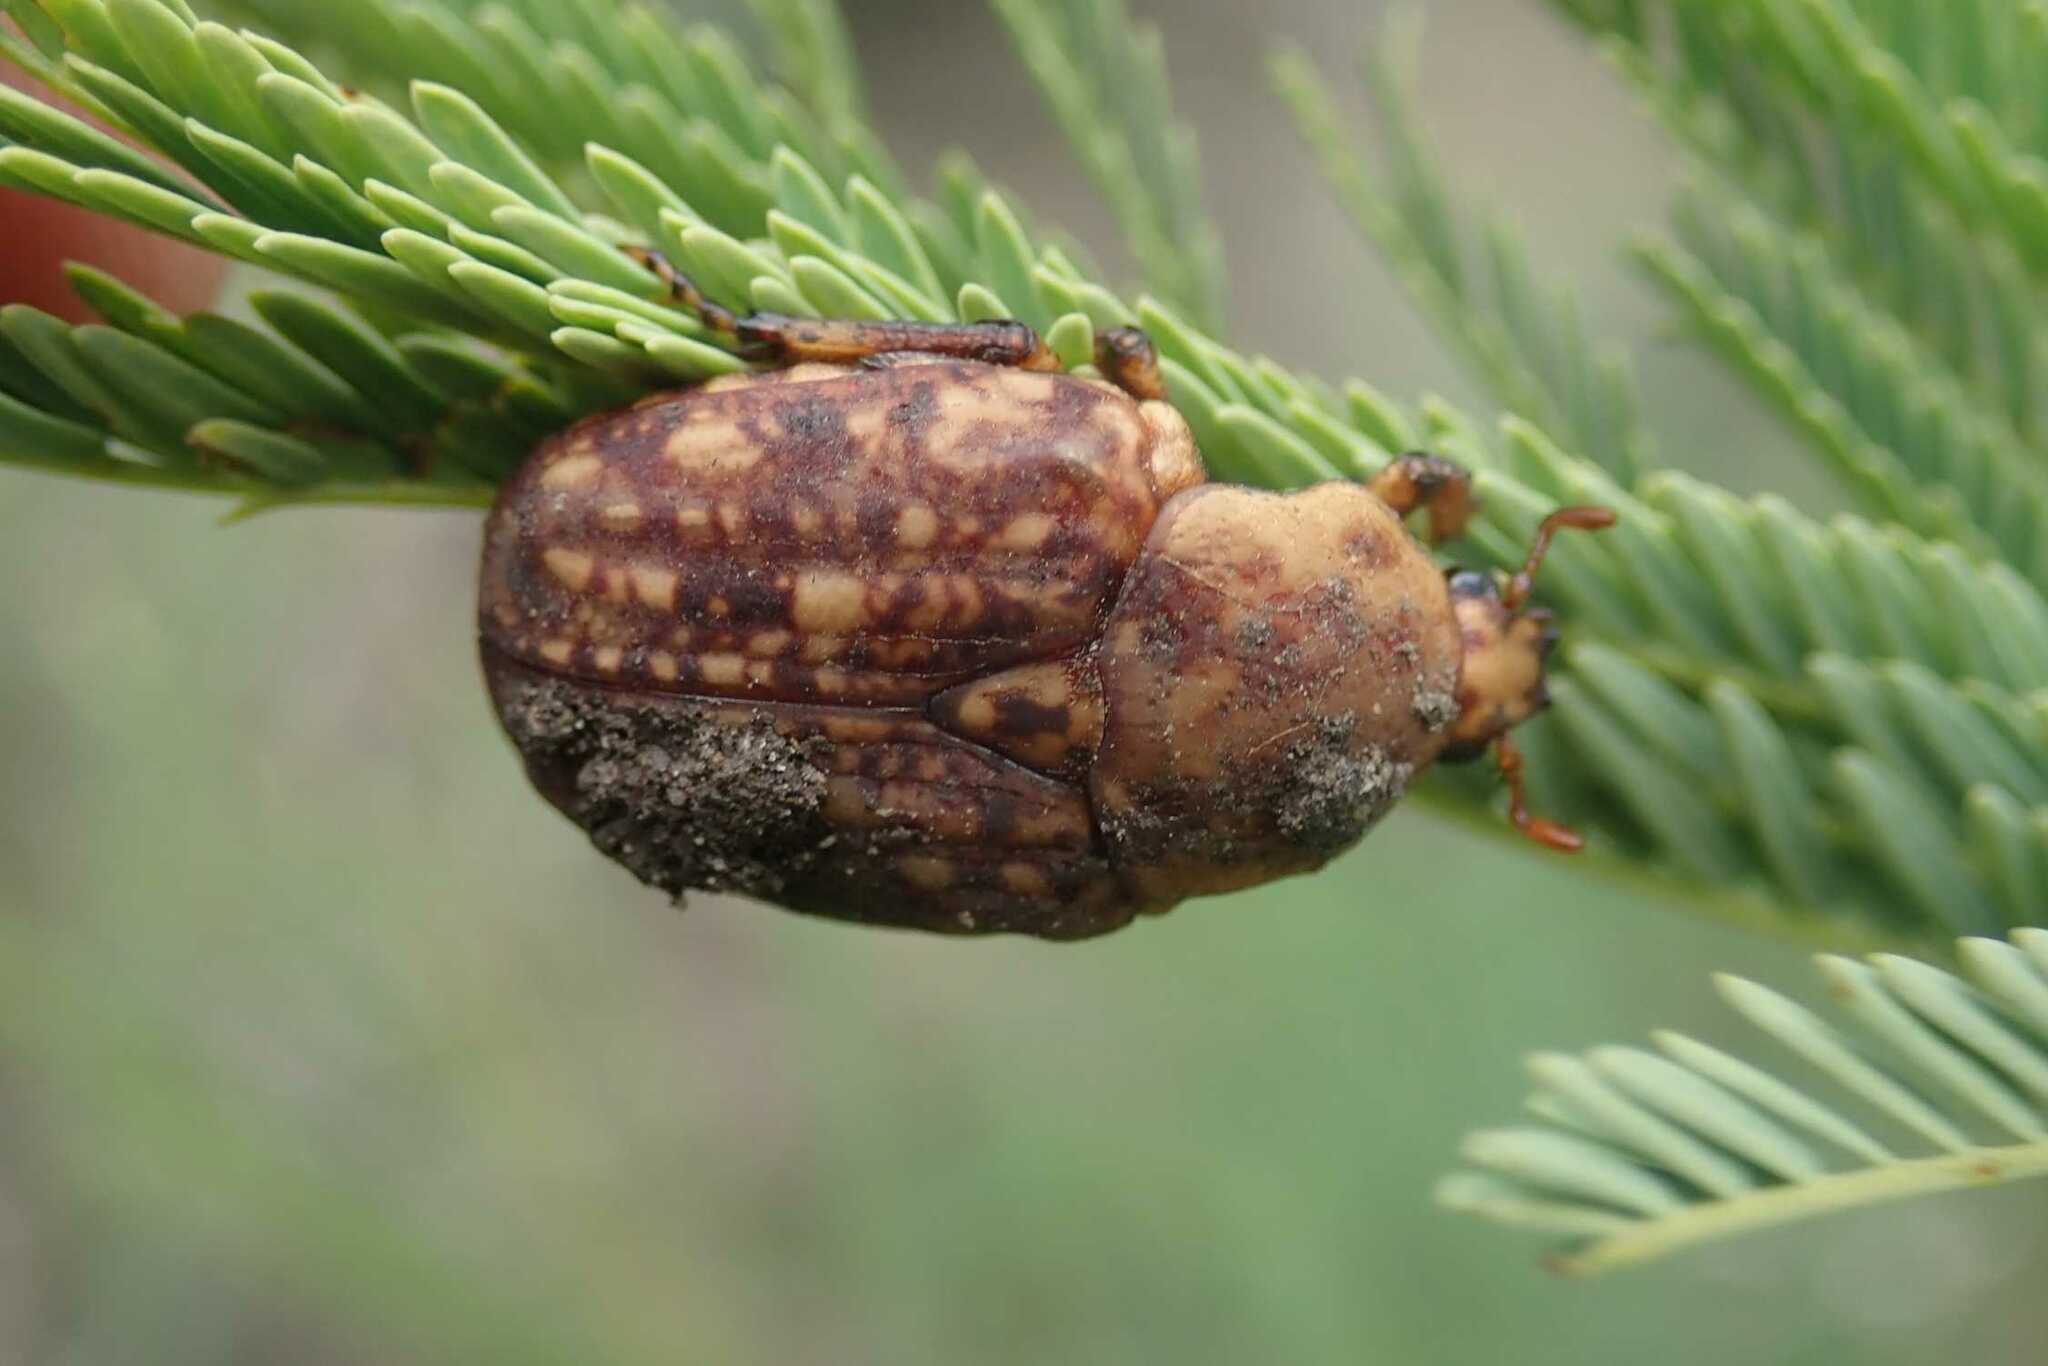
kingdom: Animalia
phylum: Arthropoda
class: Insecta
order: Coleoptera
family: Scarabaeidae
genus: Porphyronota
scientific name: Porphyronota hebraea
